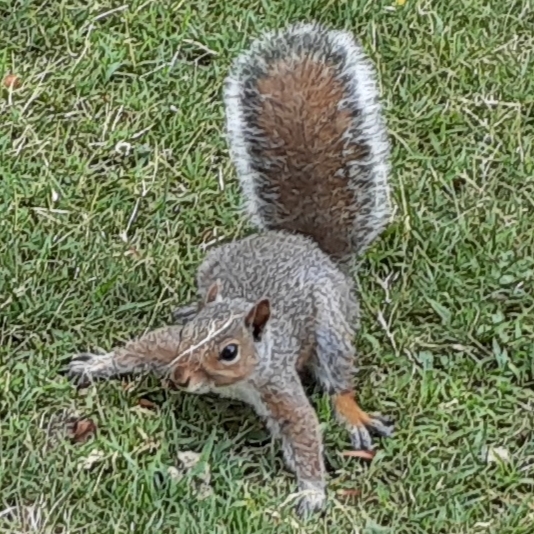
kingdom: Animalia
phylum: Chordata
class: Mammalia
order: Rodentia
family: Sciuridae
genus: Sciurus
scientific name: Sciurus carolinensis
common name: Eastern gray squirrel
